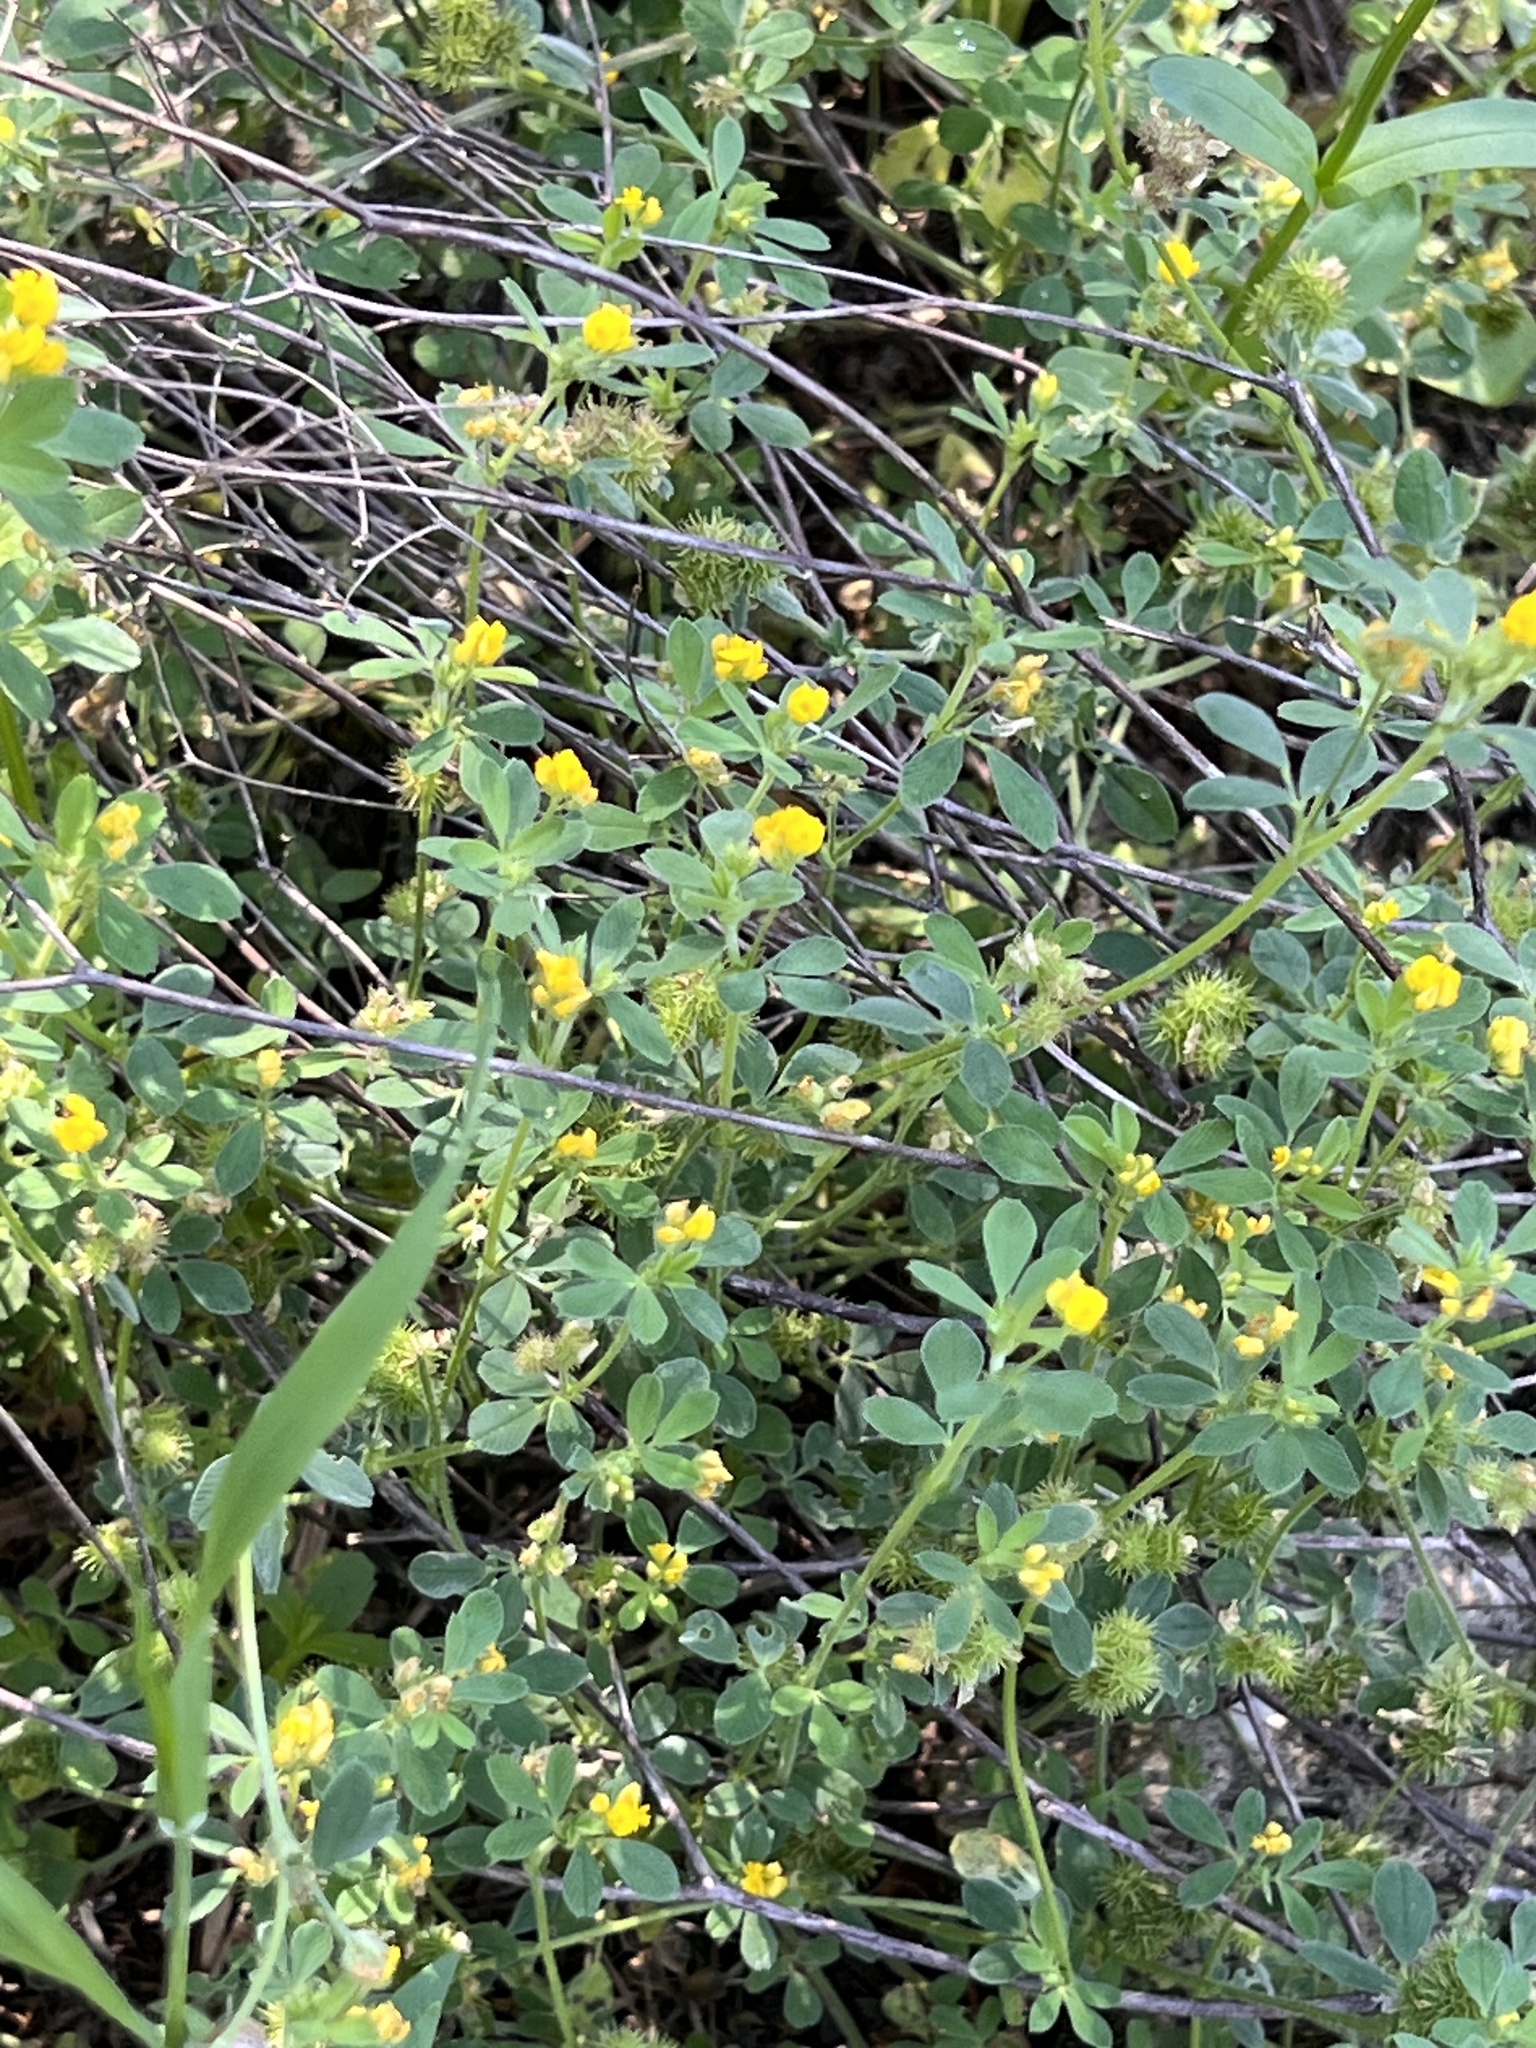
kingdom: Plantae
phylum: Tracheophyta
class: Magnoliopsida
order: Fabales
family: Fabaceae
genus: Medicago
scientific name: Medicago minima
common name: Little bur-clover
